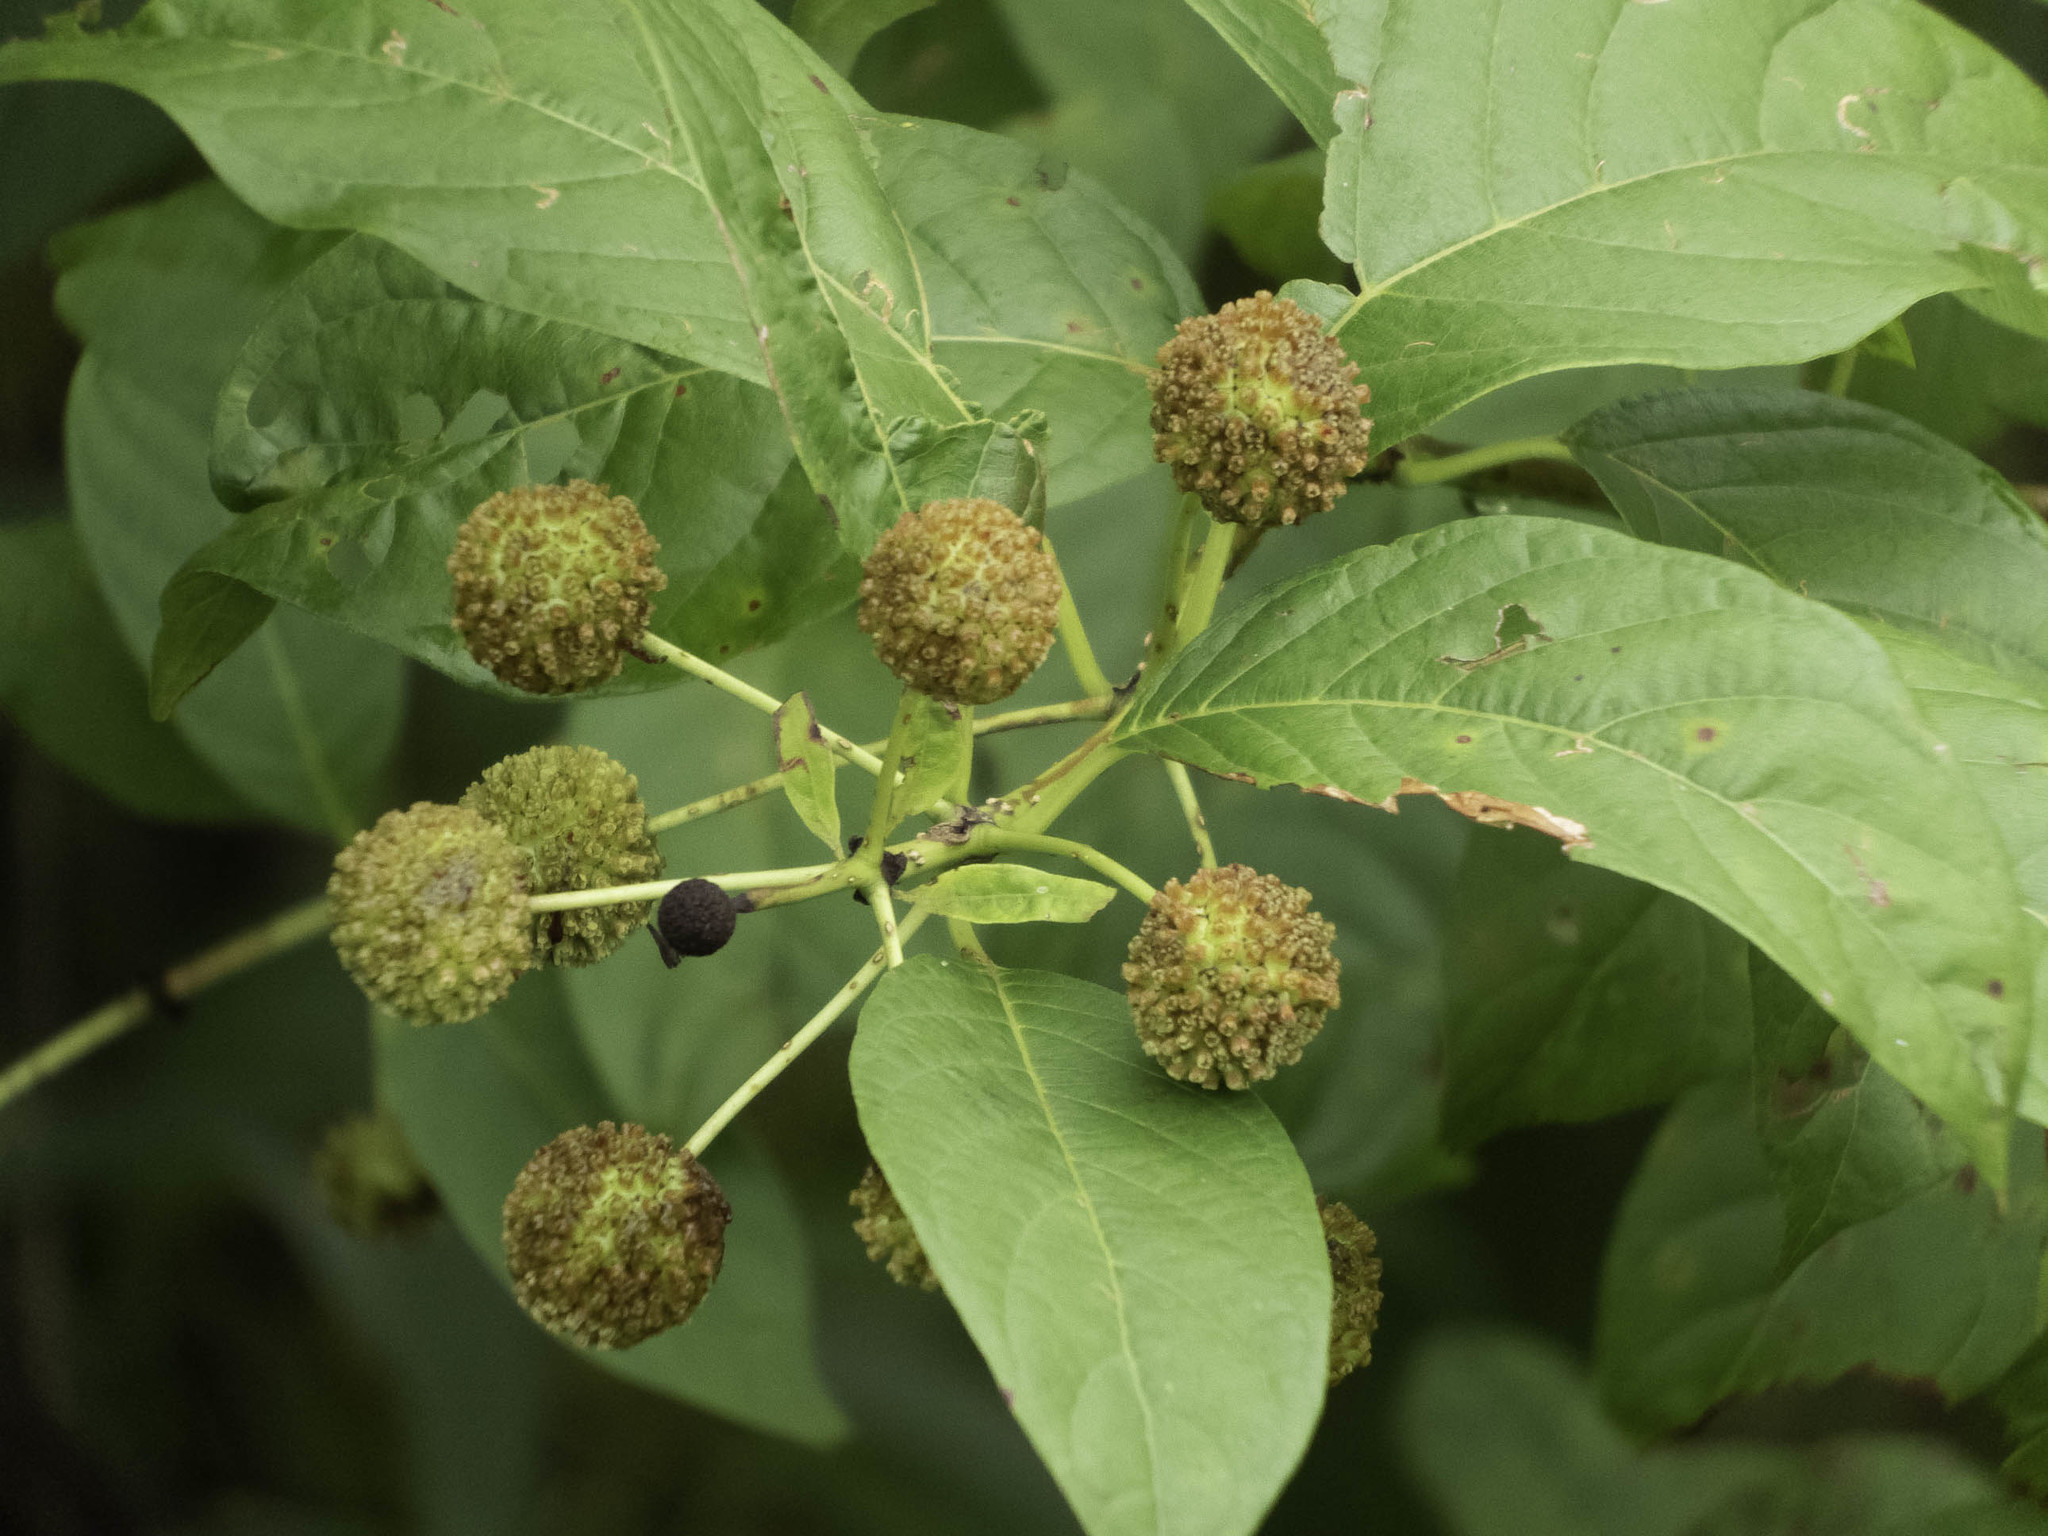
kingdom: Plantae
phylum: Tracheophyta
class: Magnoliopsida
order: Gentianales
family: Rubiaceae
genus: Cephalanthus
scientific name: Cephalanthus occidentalis
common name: Button-willow
